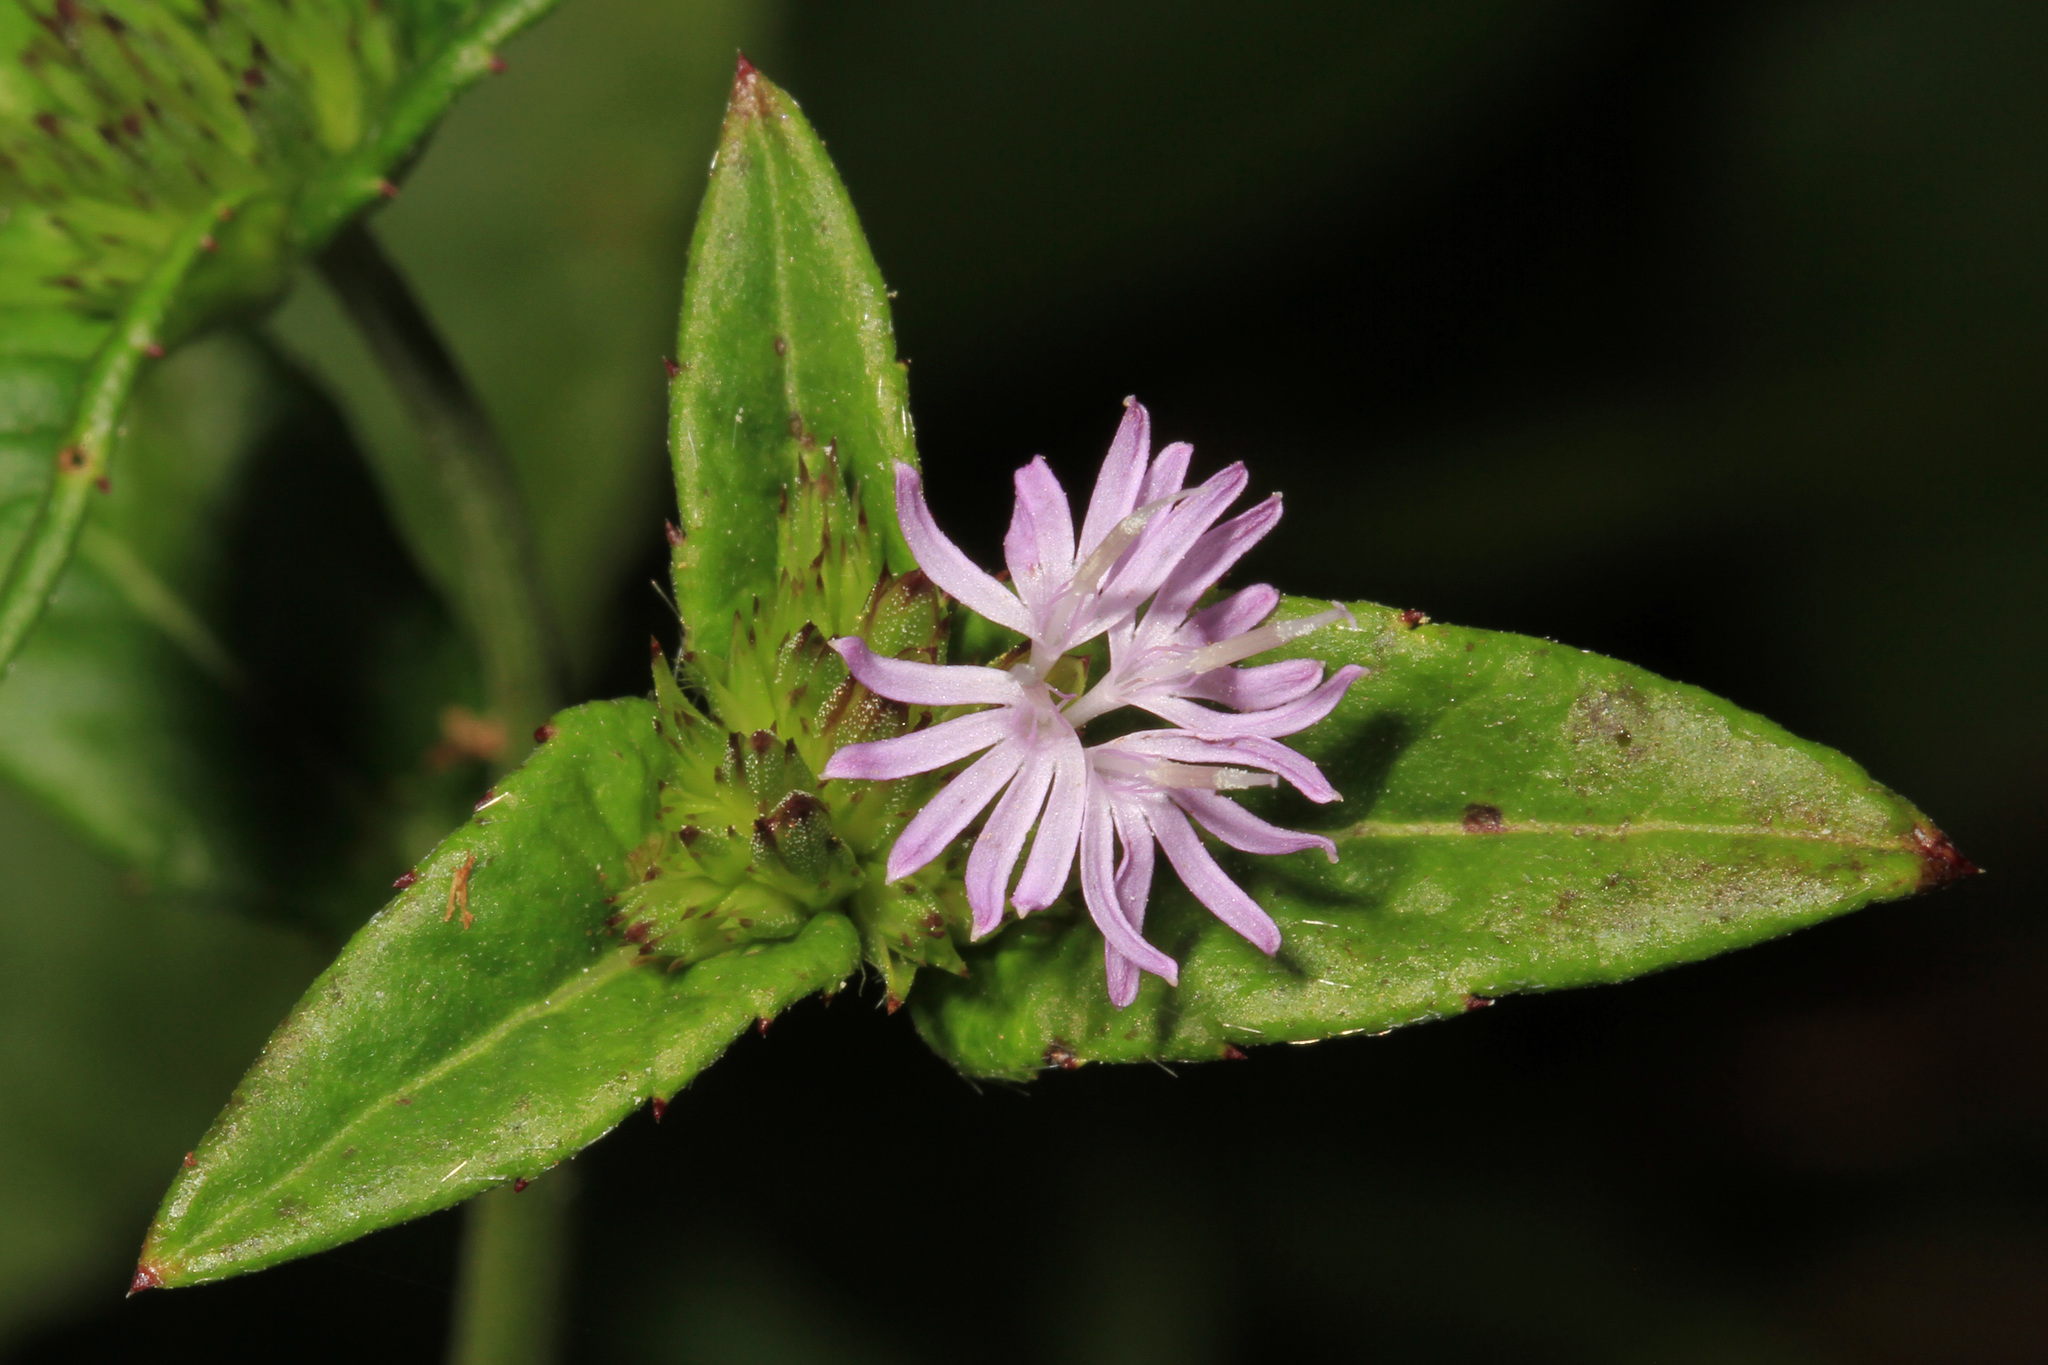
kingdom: Plantae
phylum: Tracheophyta
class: Magnoliopsida
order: Asterales
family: Asteraceae
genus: Elephantopus
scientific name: Elephantopus carolinianus
